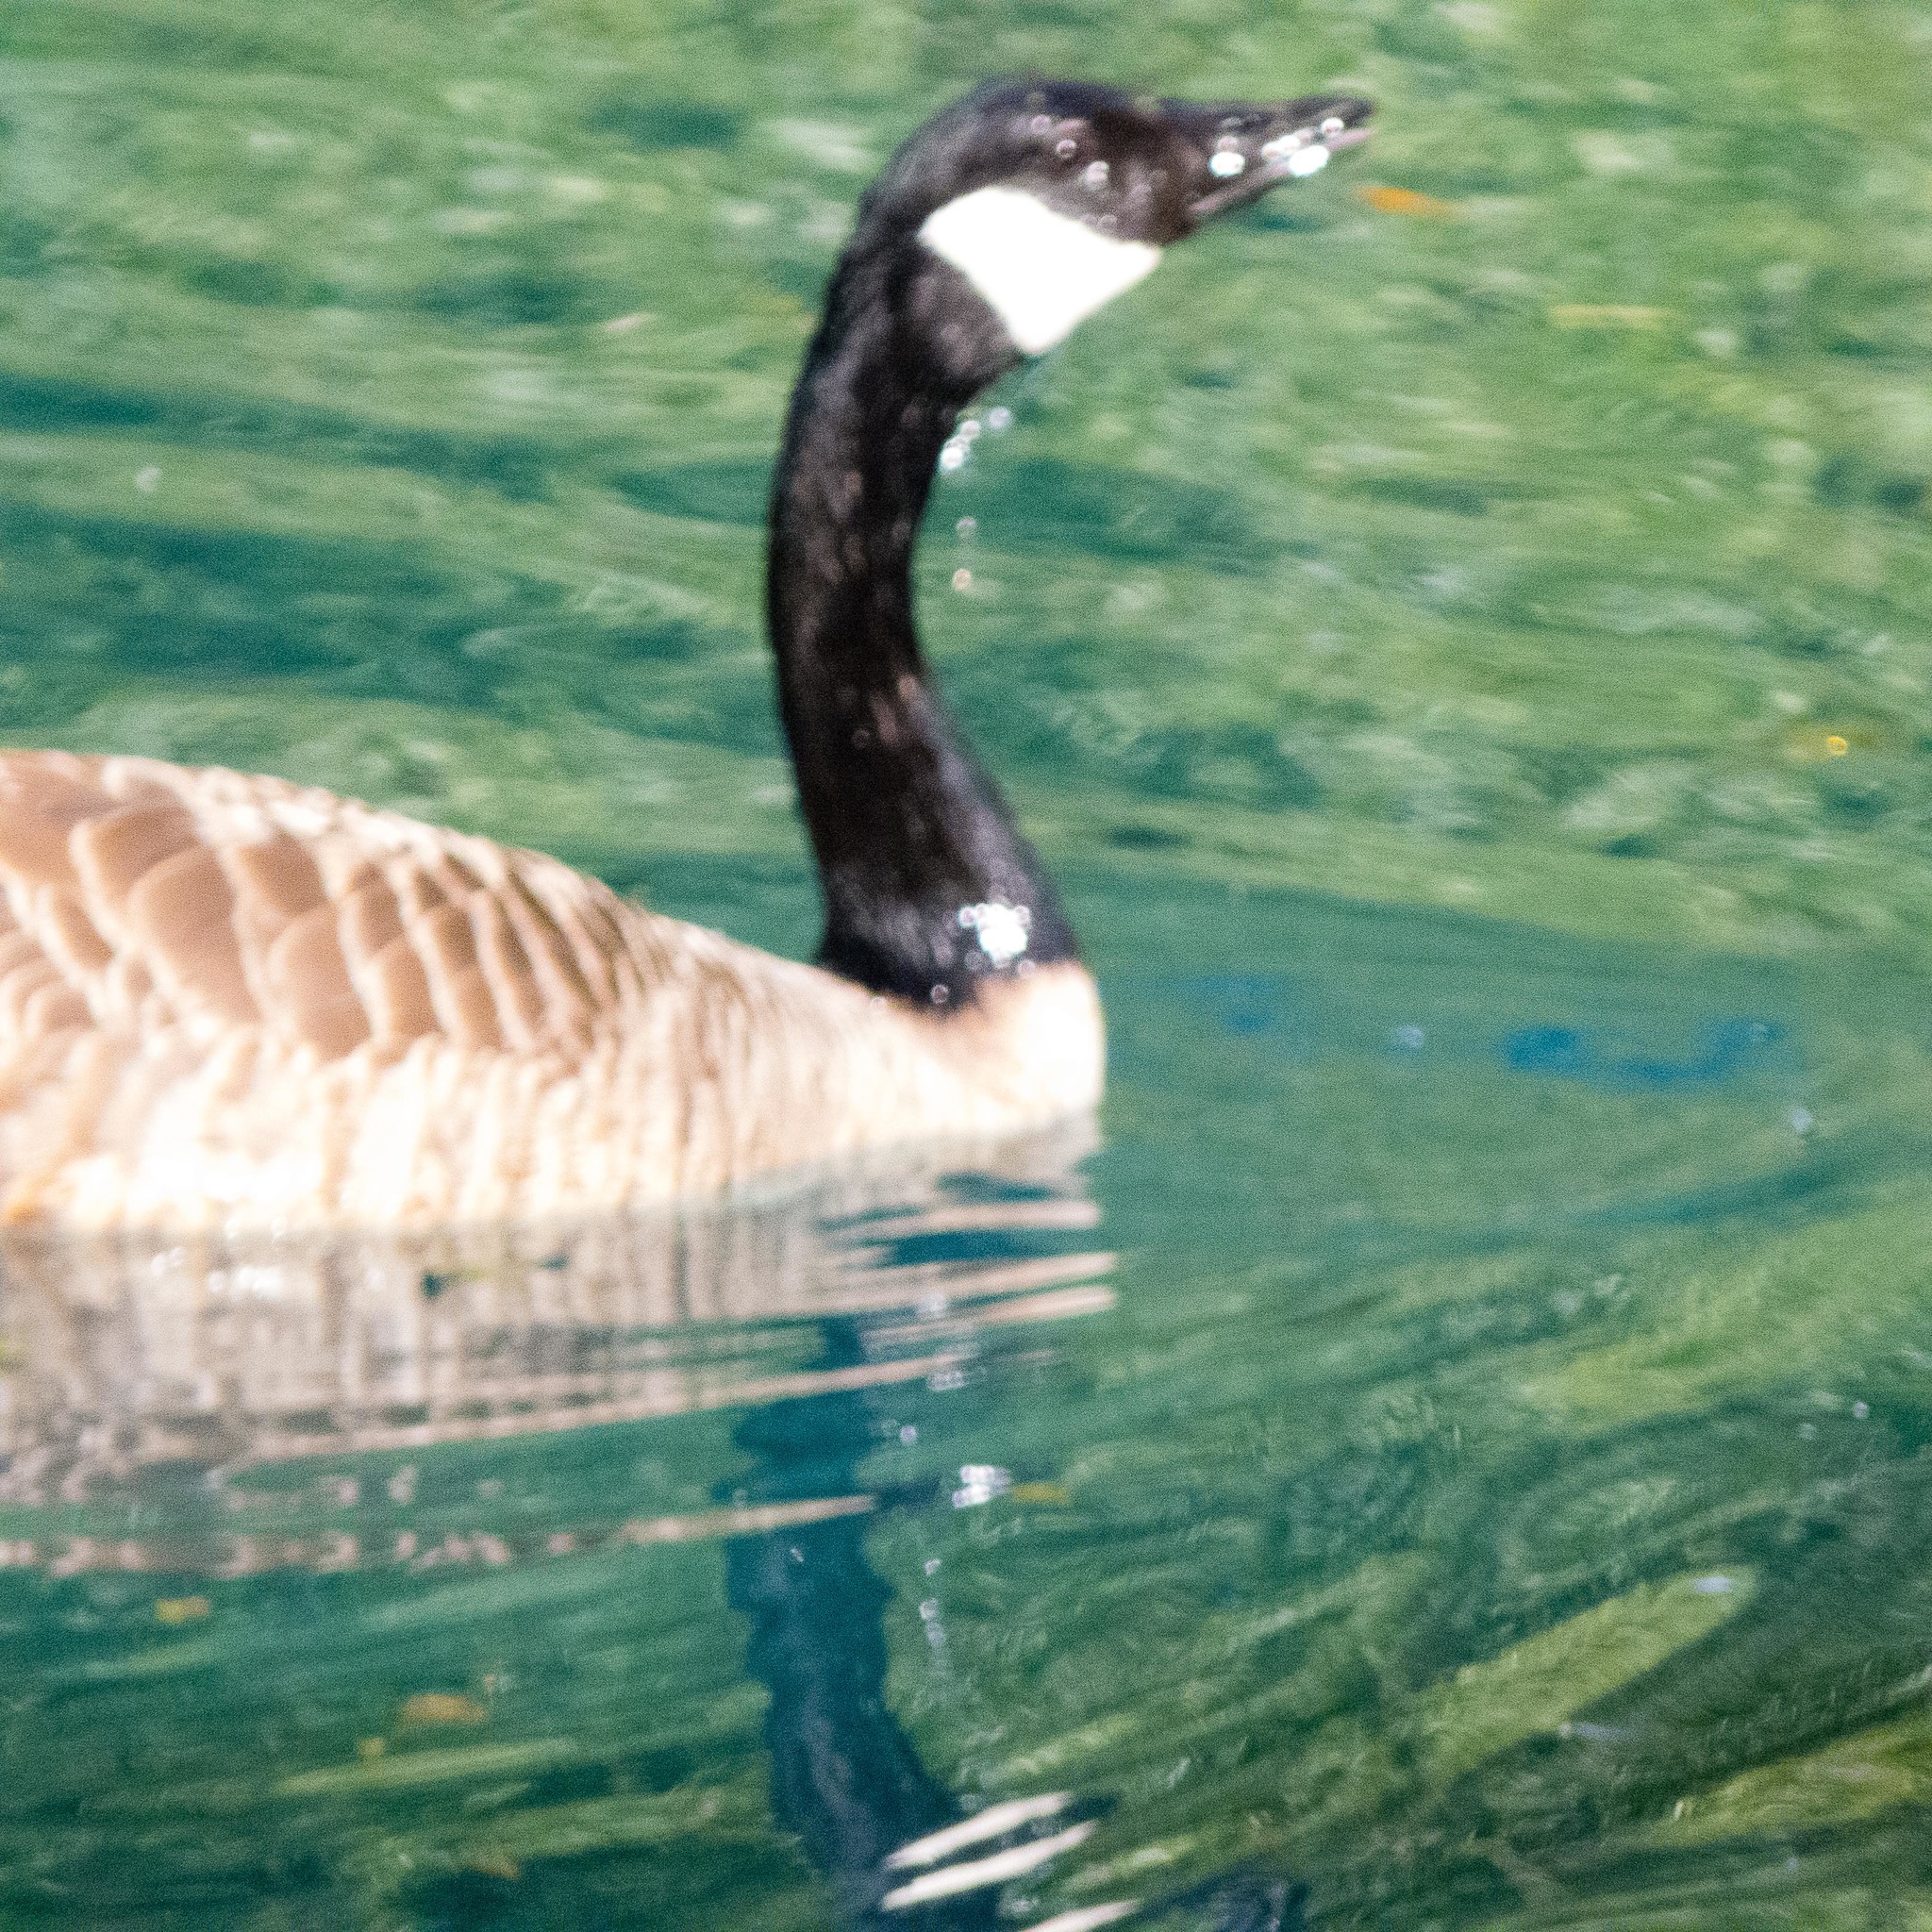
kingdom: Animalia
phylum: Chordata
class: Aves
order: Anseriformes
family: Anatidae
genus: Branta
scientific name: Branta canadensis
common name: Canada goose
